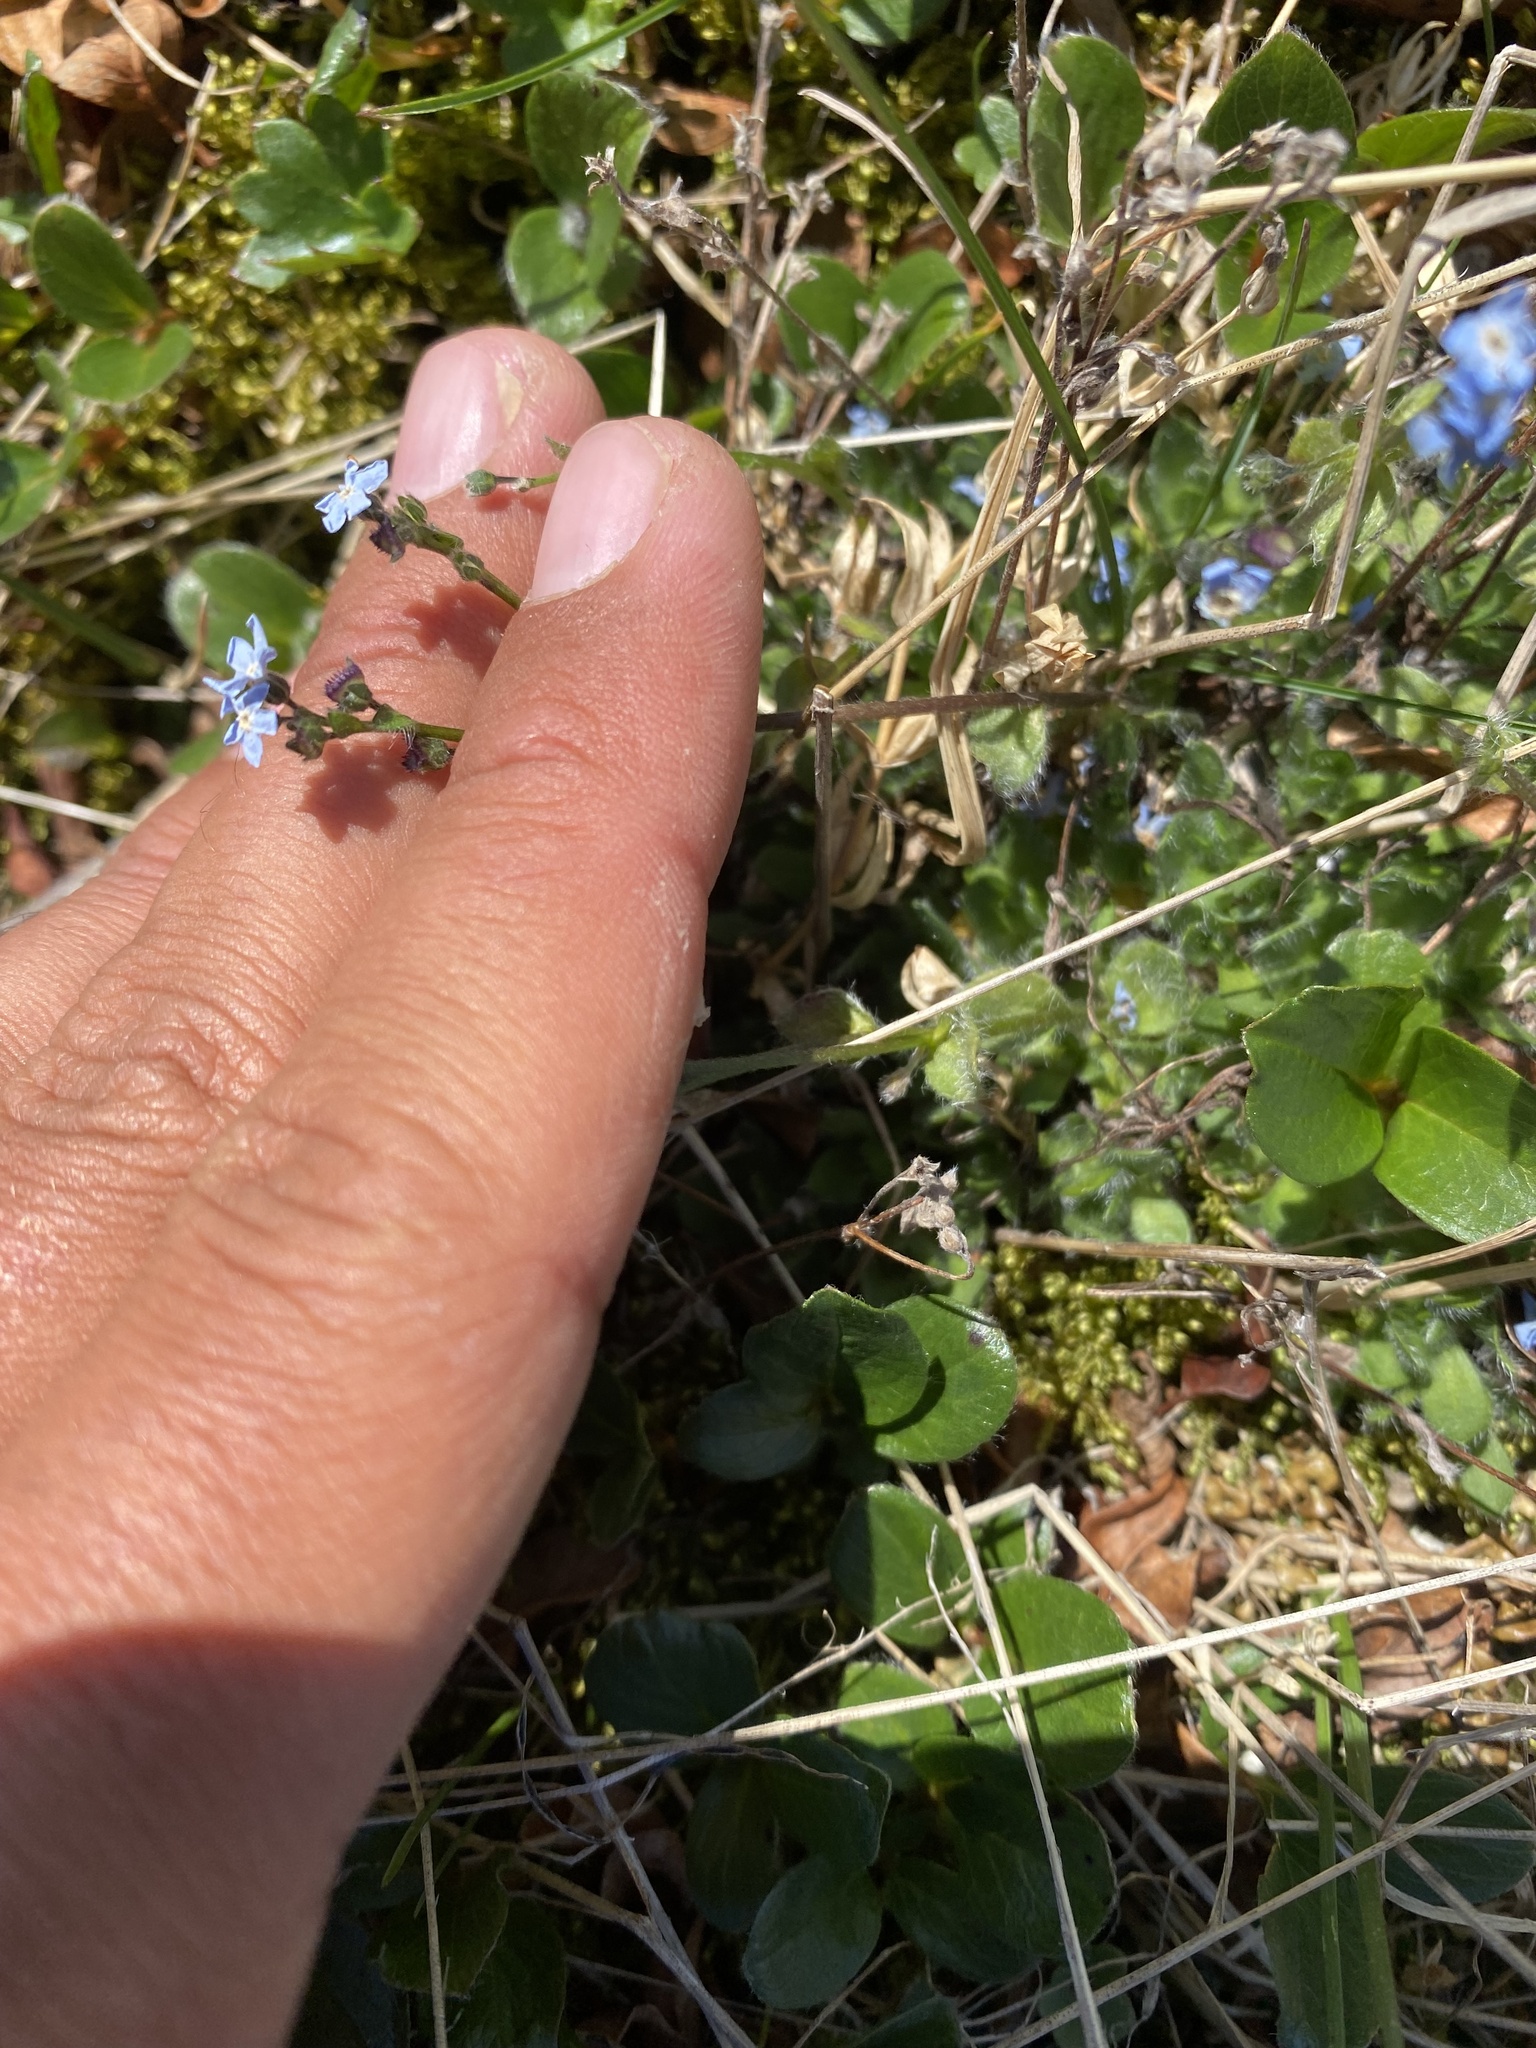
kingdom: Plantae
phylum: Tracheophyta
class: Magnoliopsida
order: Boraginales
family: Boraginaceae
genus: Eritrichium
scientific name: Eritrichium villosum
